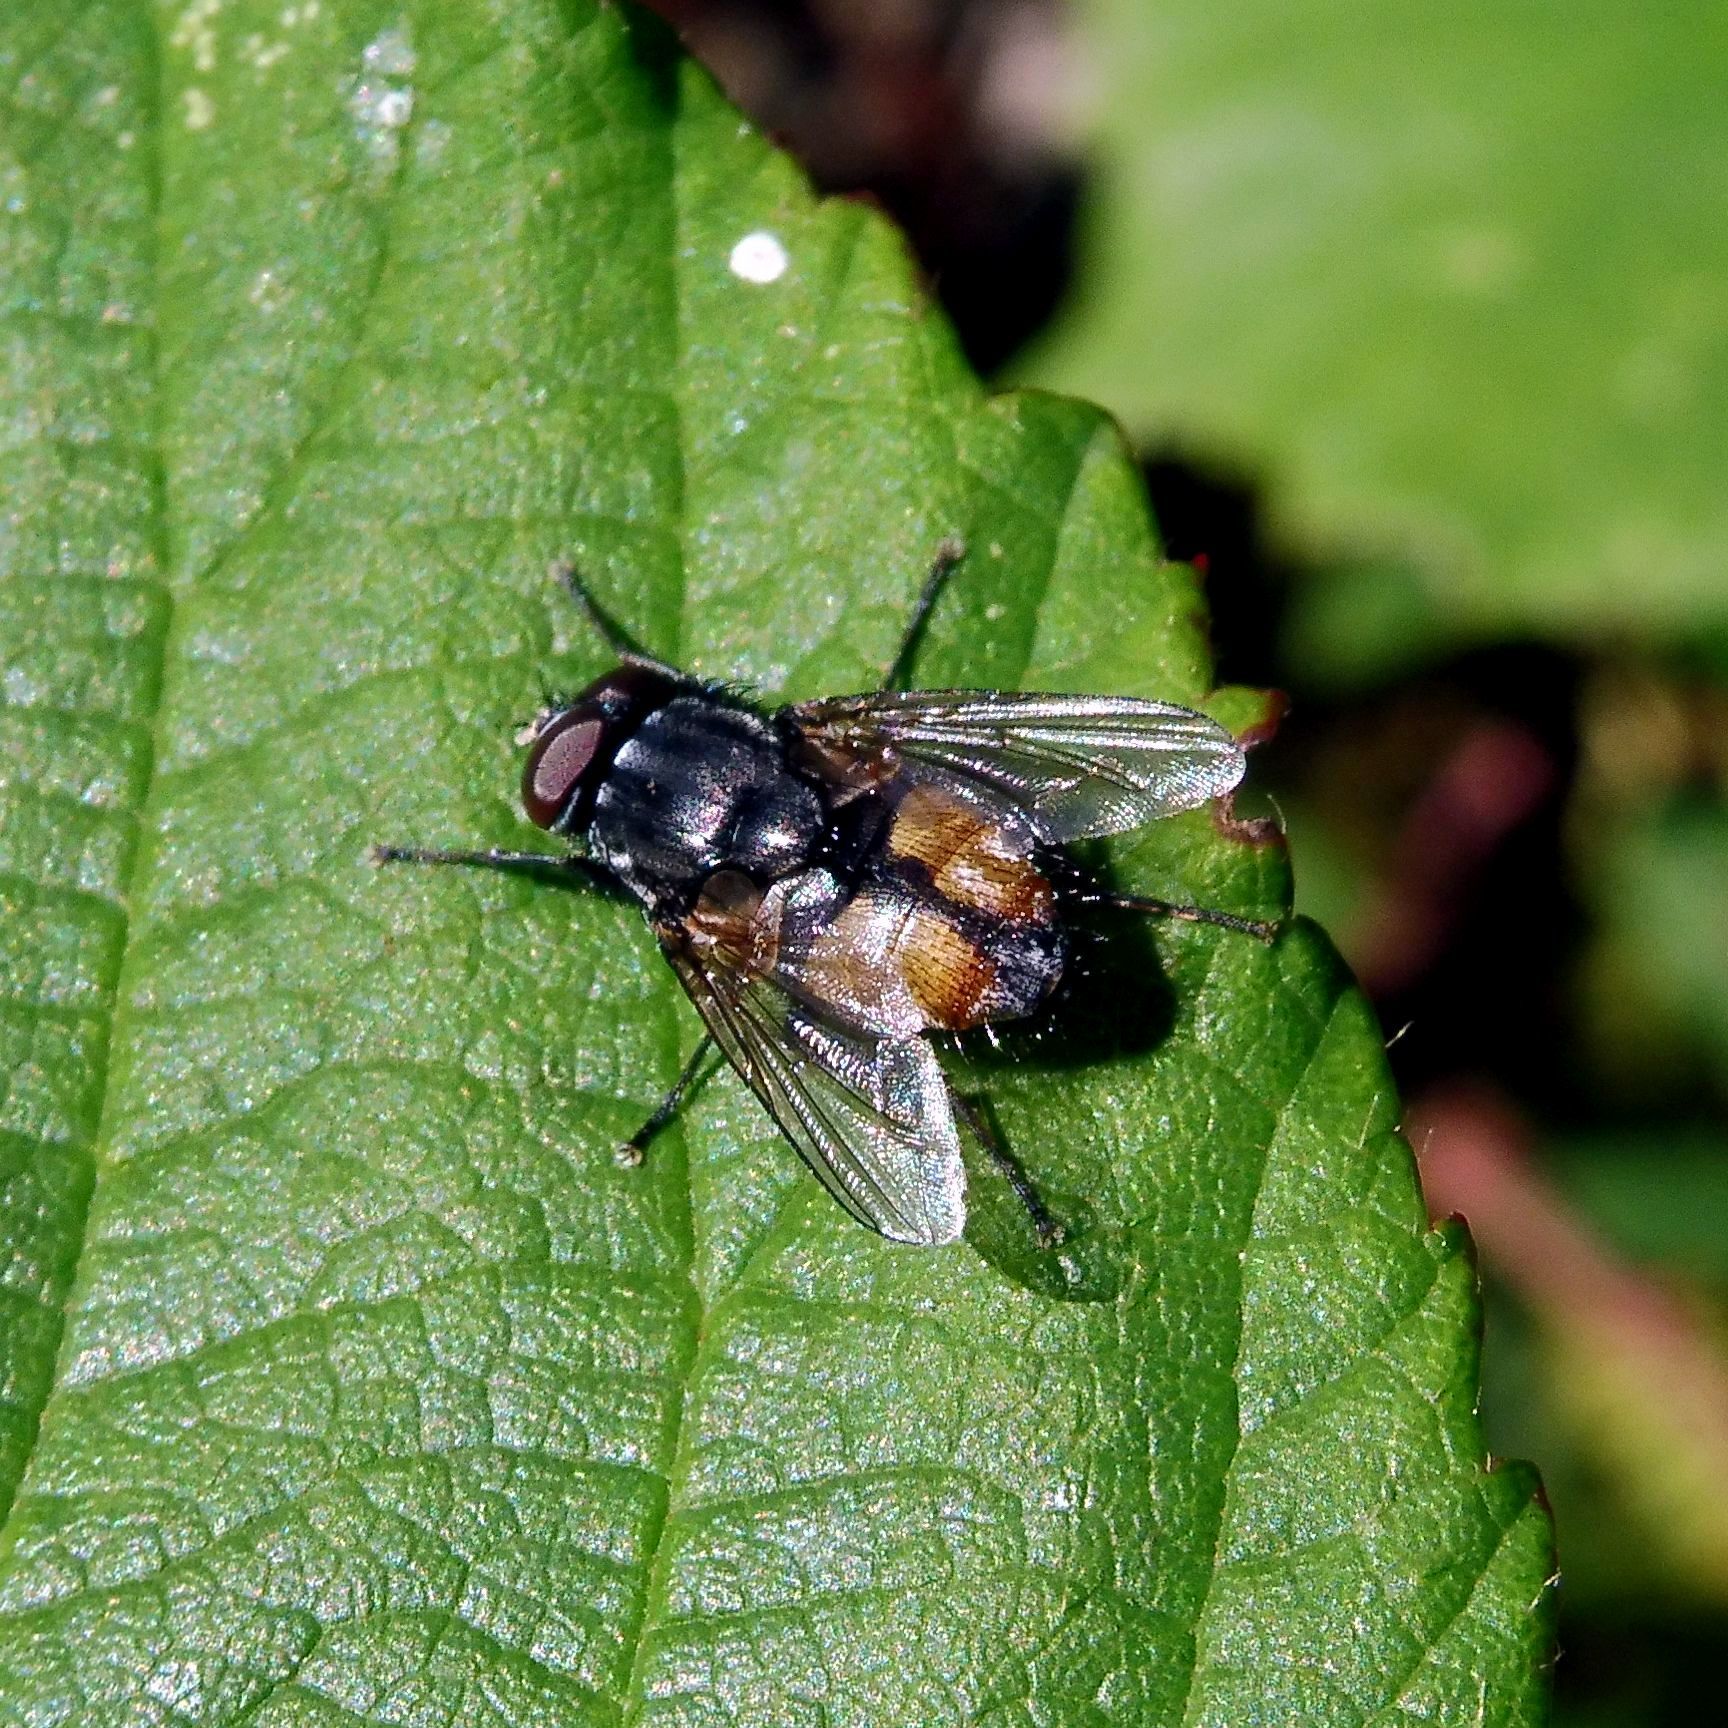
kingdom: Animalia
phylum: Arthropoda
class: Insecta
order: Diptera
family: Muscidae
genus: Musca
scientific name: Musca autumnalis
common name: Face fly
